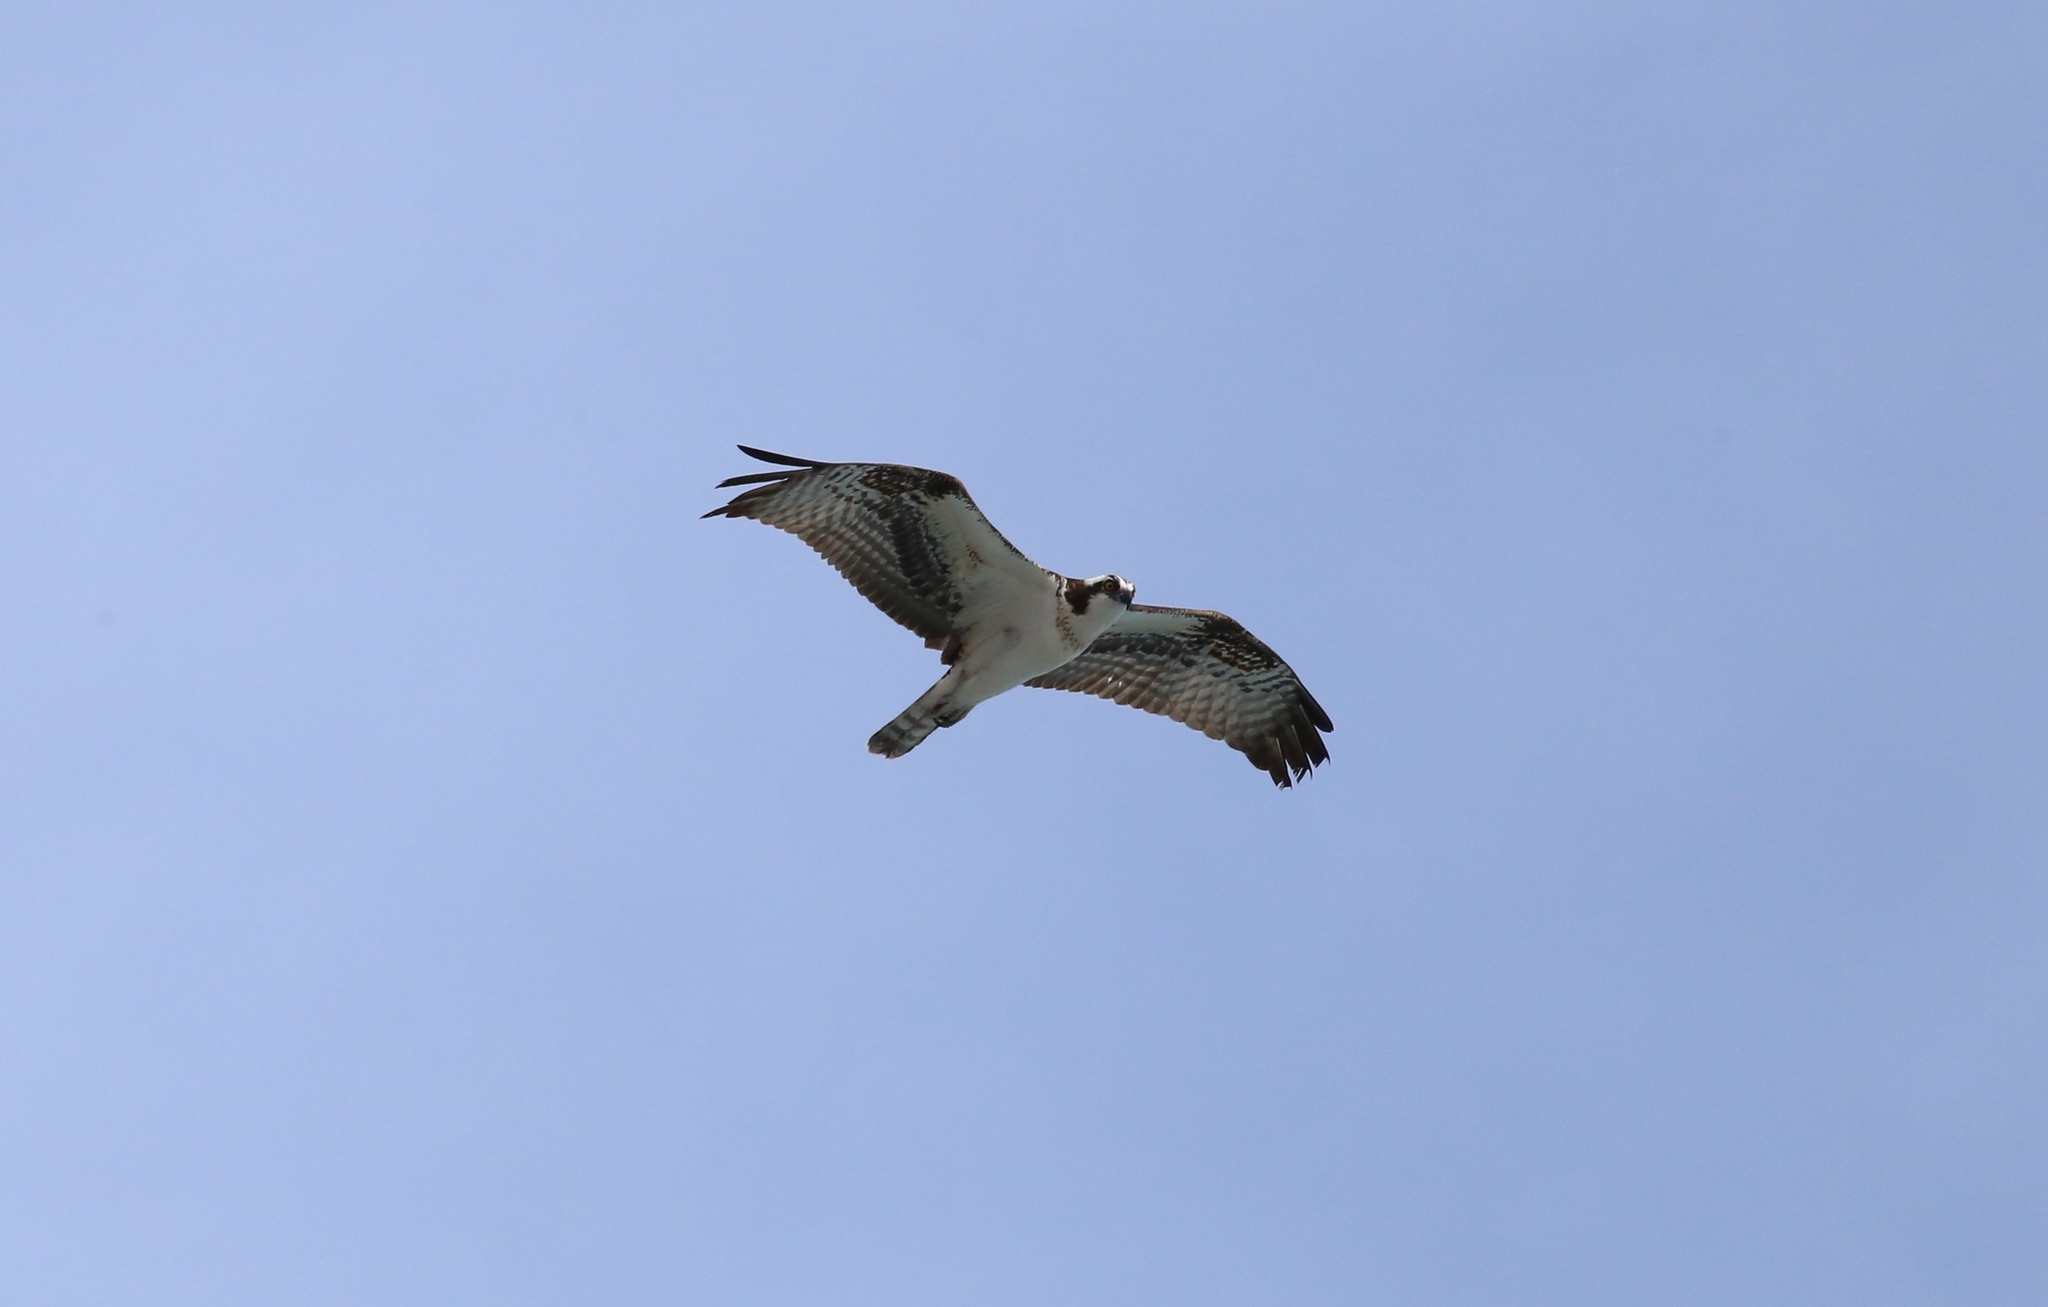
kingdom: Animalia
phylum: Chordata
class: Aves
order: Accipitriformes
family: Pandionidae
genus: Pandion
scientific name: Pandion haliaetus
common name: Osprey
